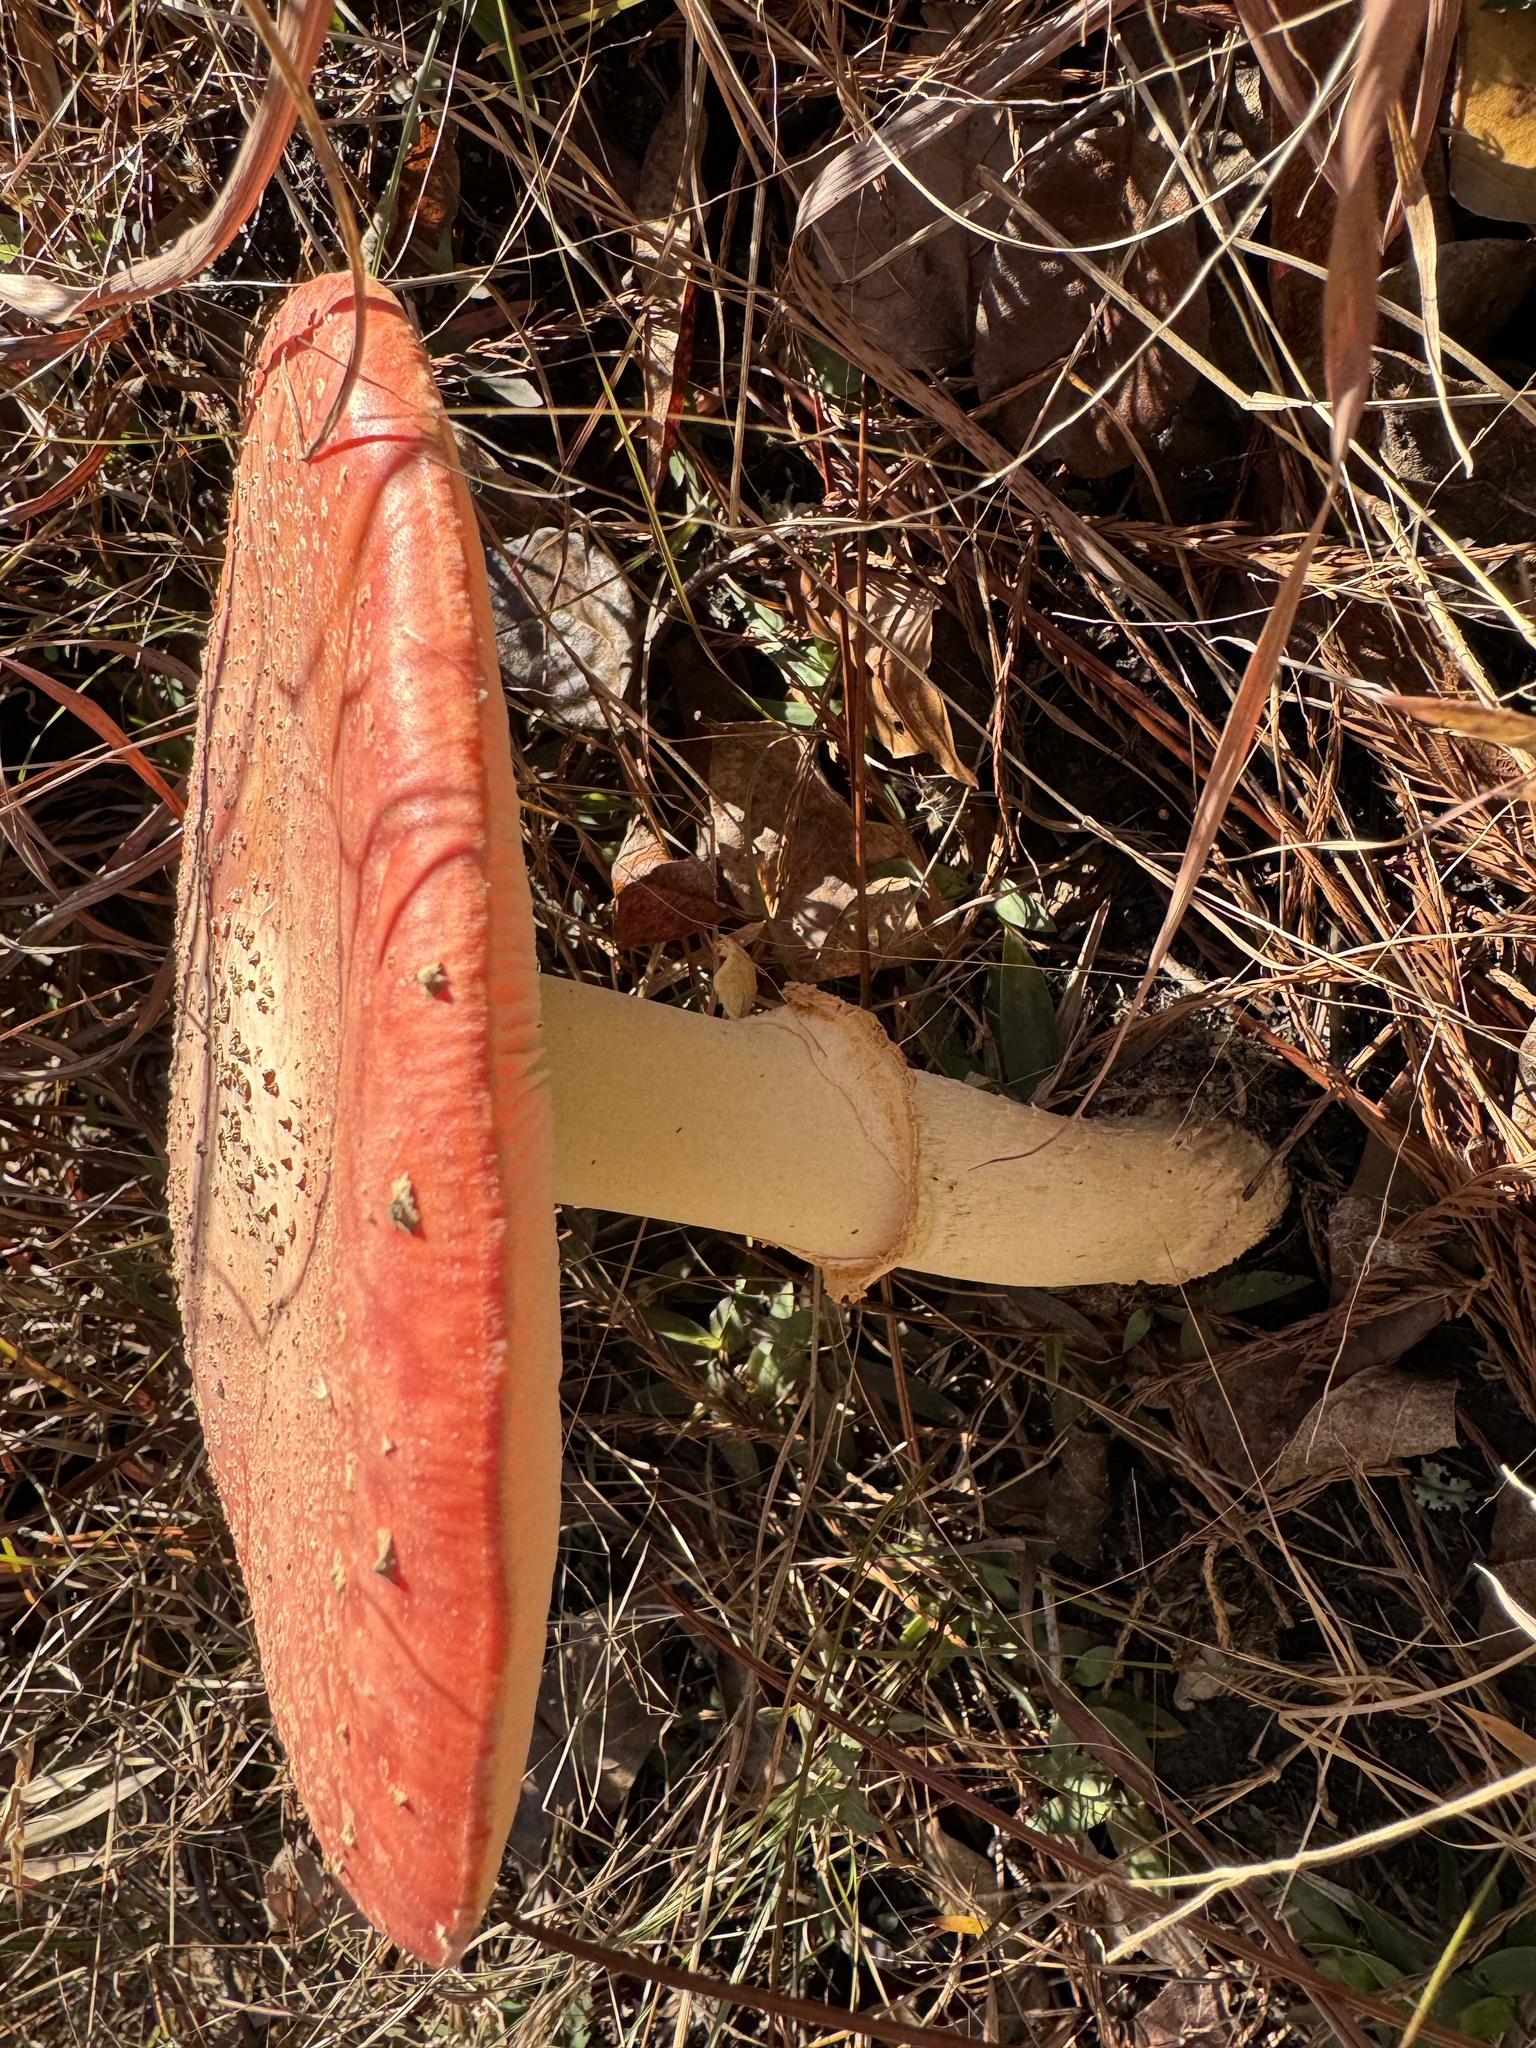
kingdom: Fungi
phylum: Basidiomycota
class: Agaricomycetes
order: Agaricales
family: Amanitaceae
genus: Amanita
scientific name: Amanita persicina
